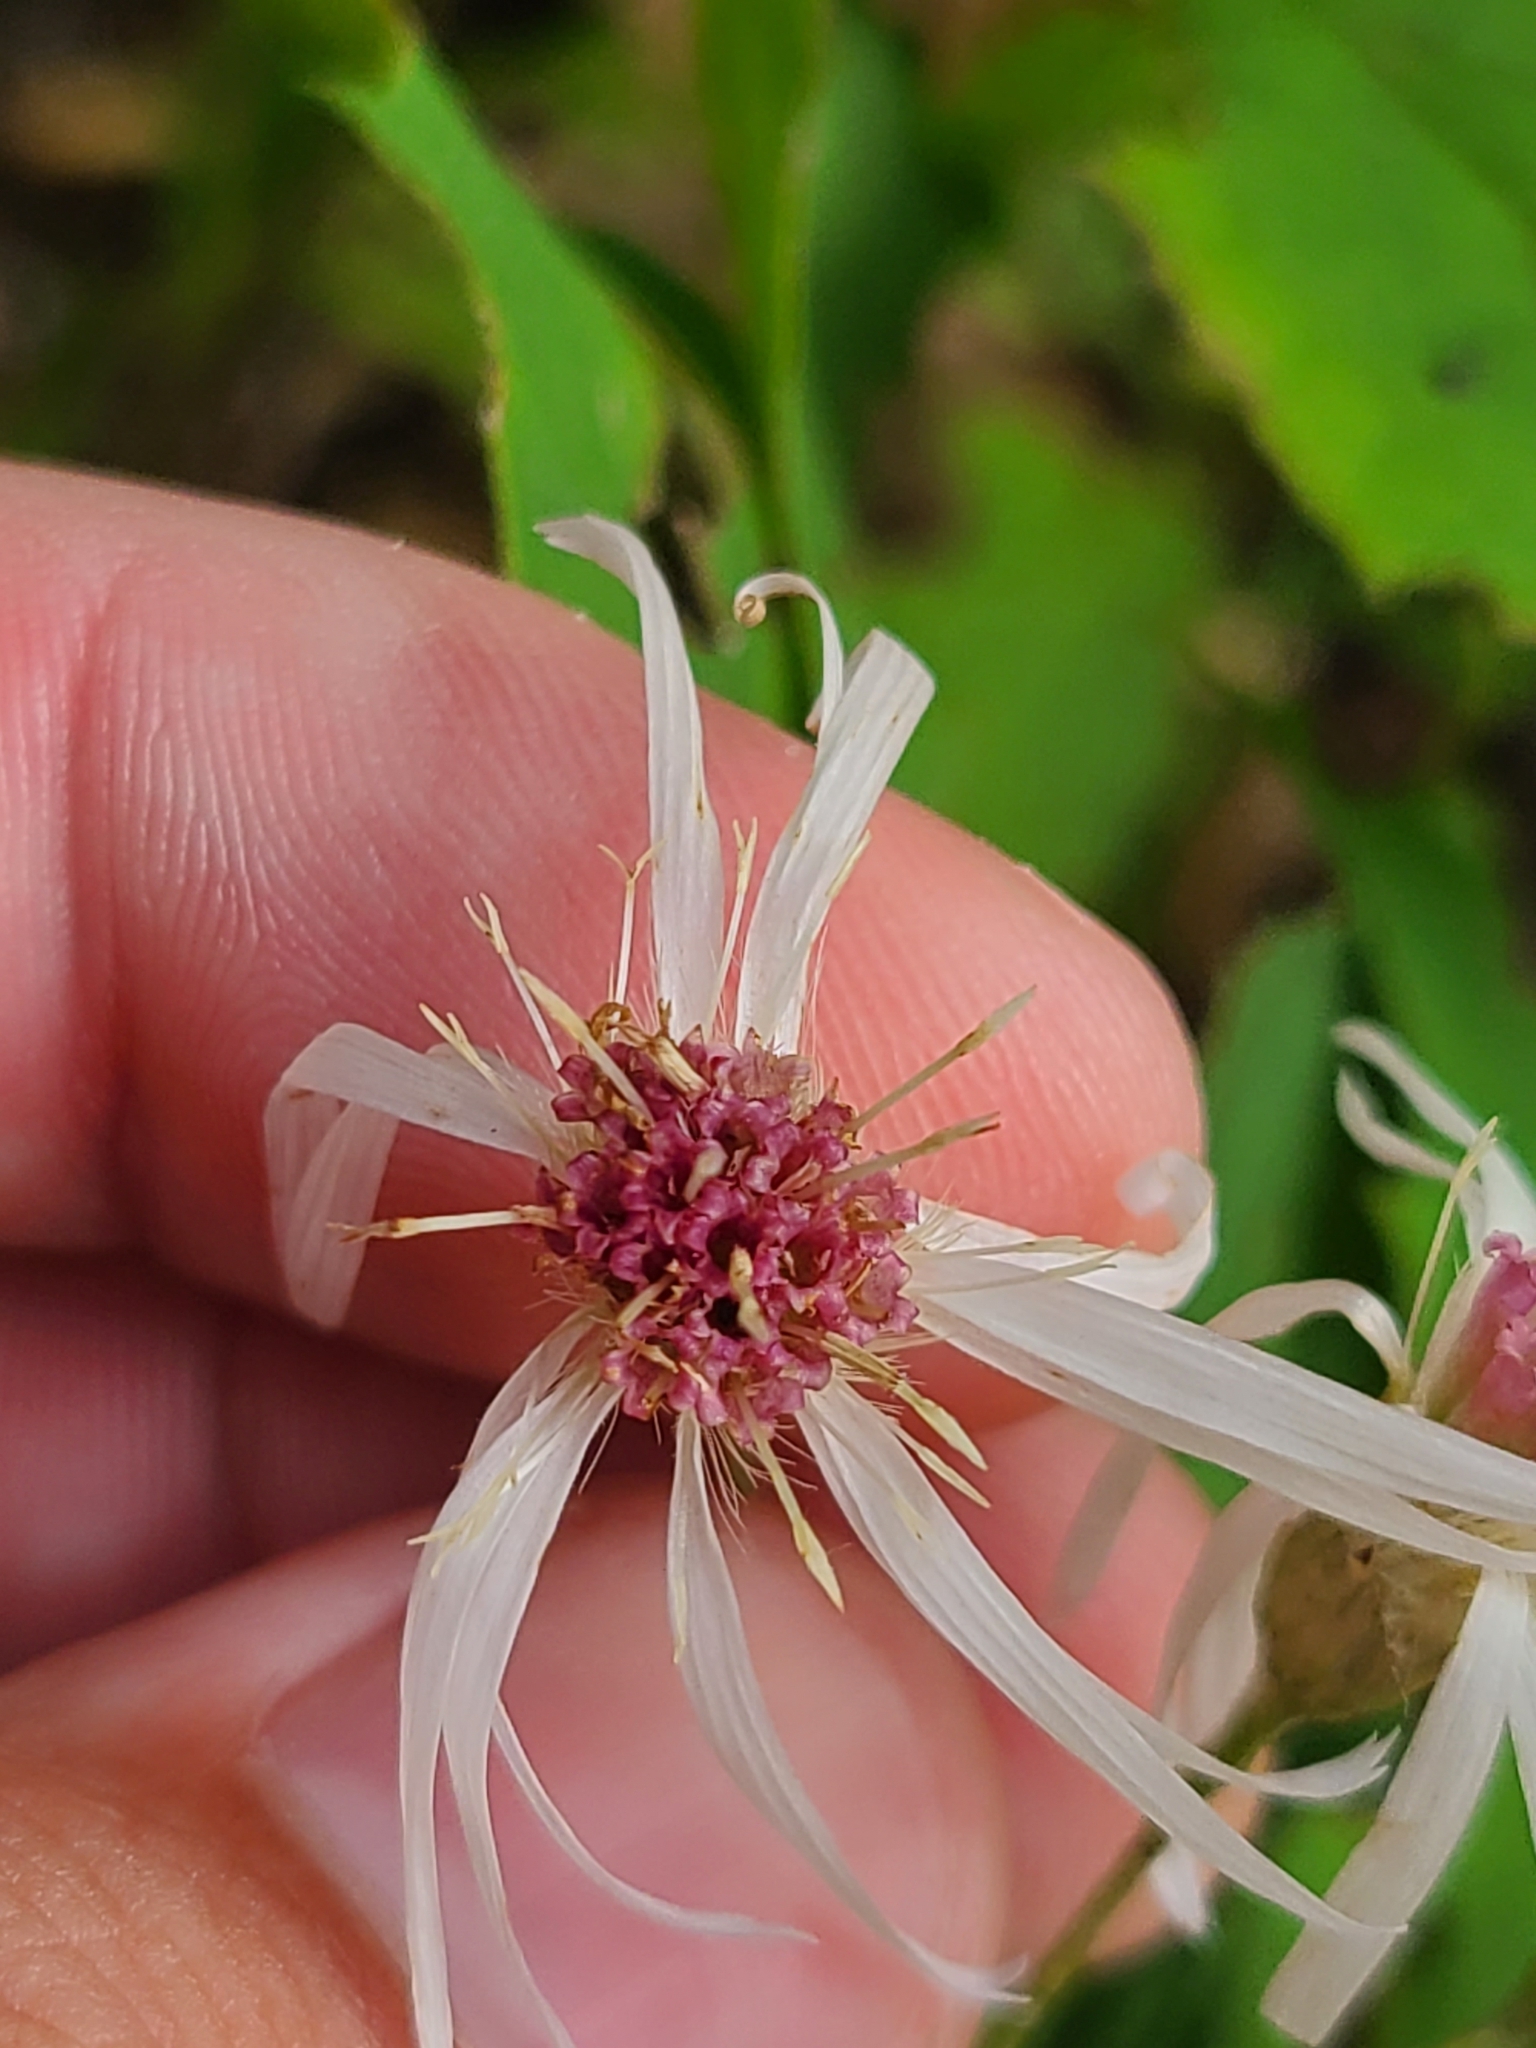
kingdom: Plantae
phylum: Tracheophyta
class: Magnoliopsida
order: Asterales
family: Asteraceae
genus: Oclemena
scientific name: Oclemena acuminata
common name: Mountain aster
